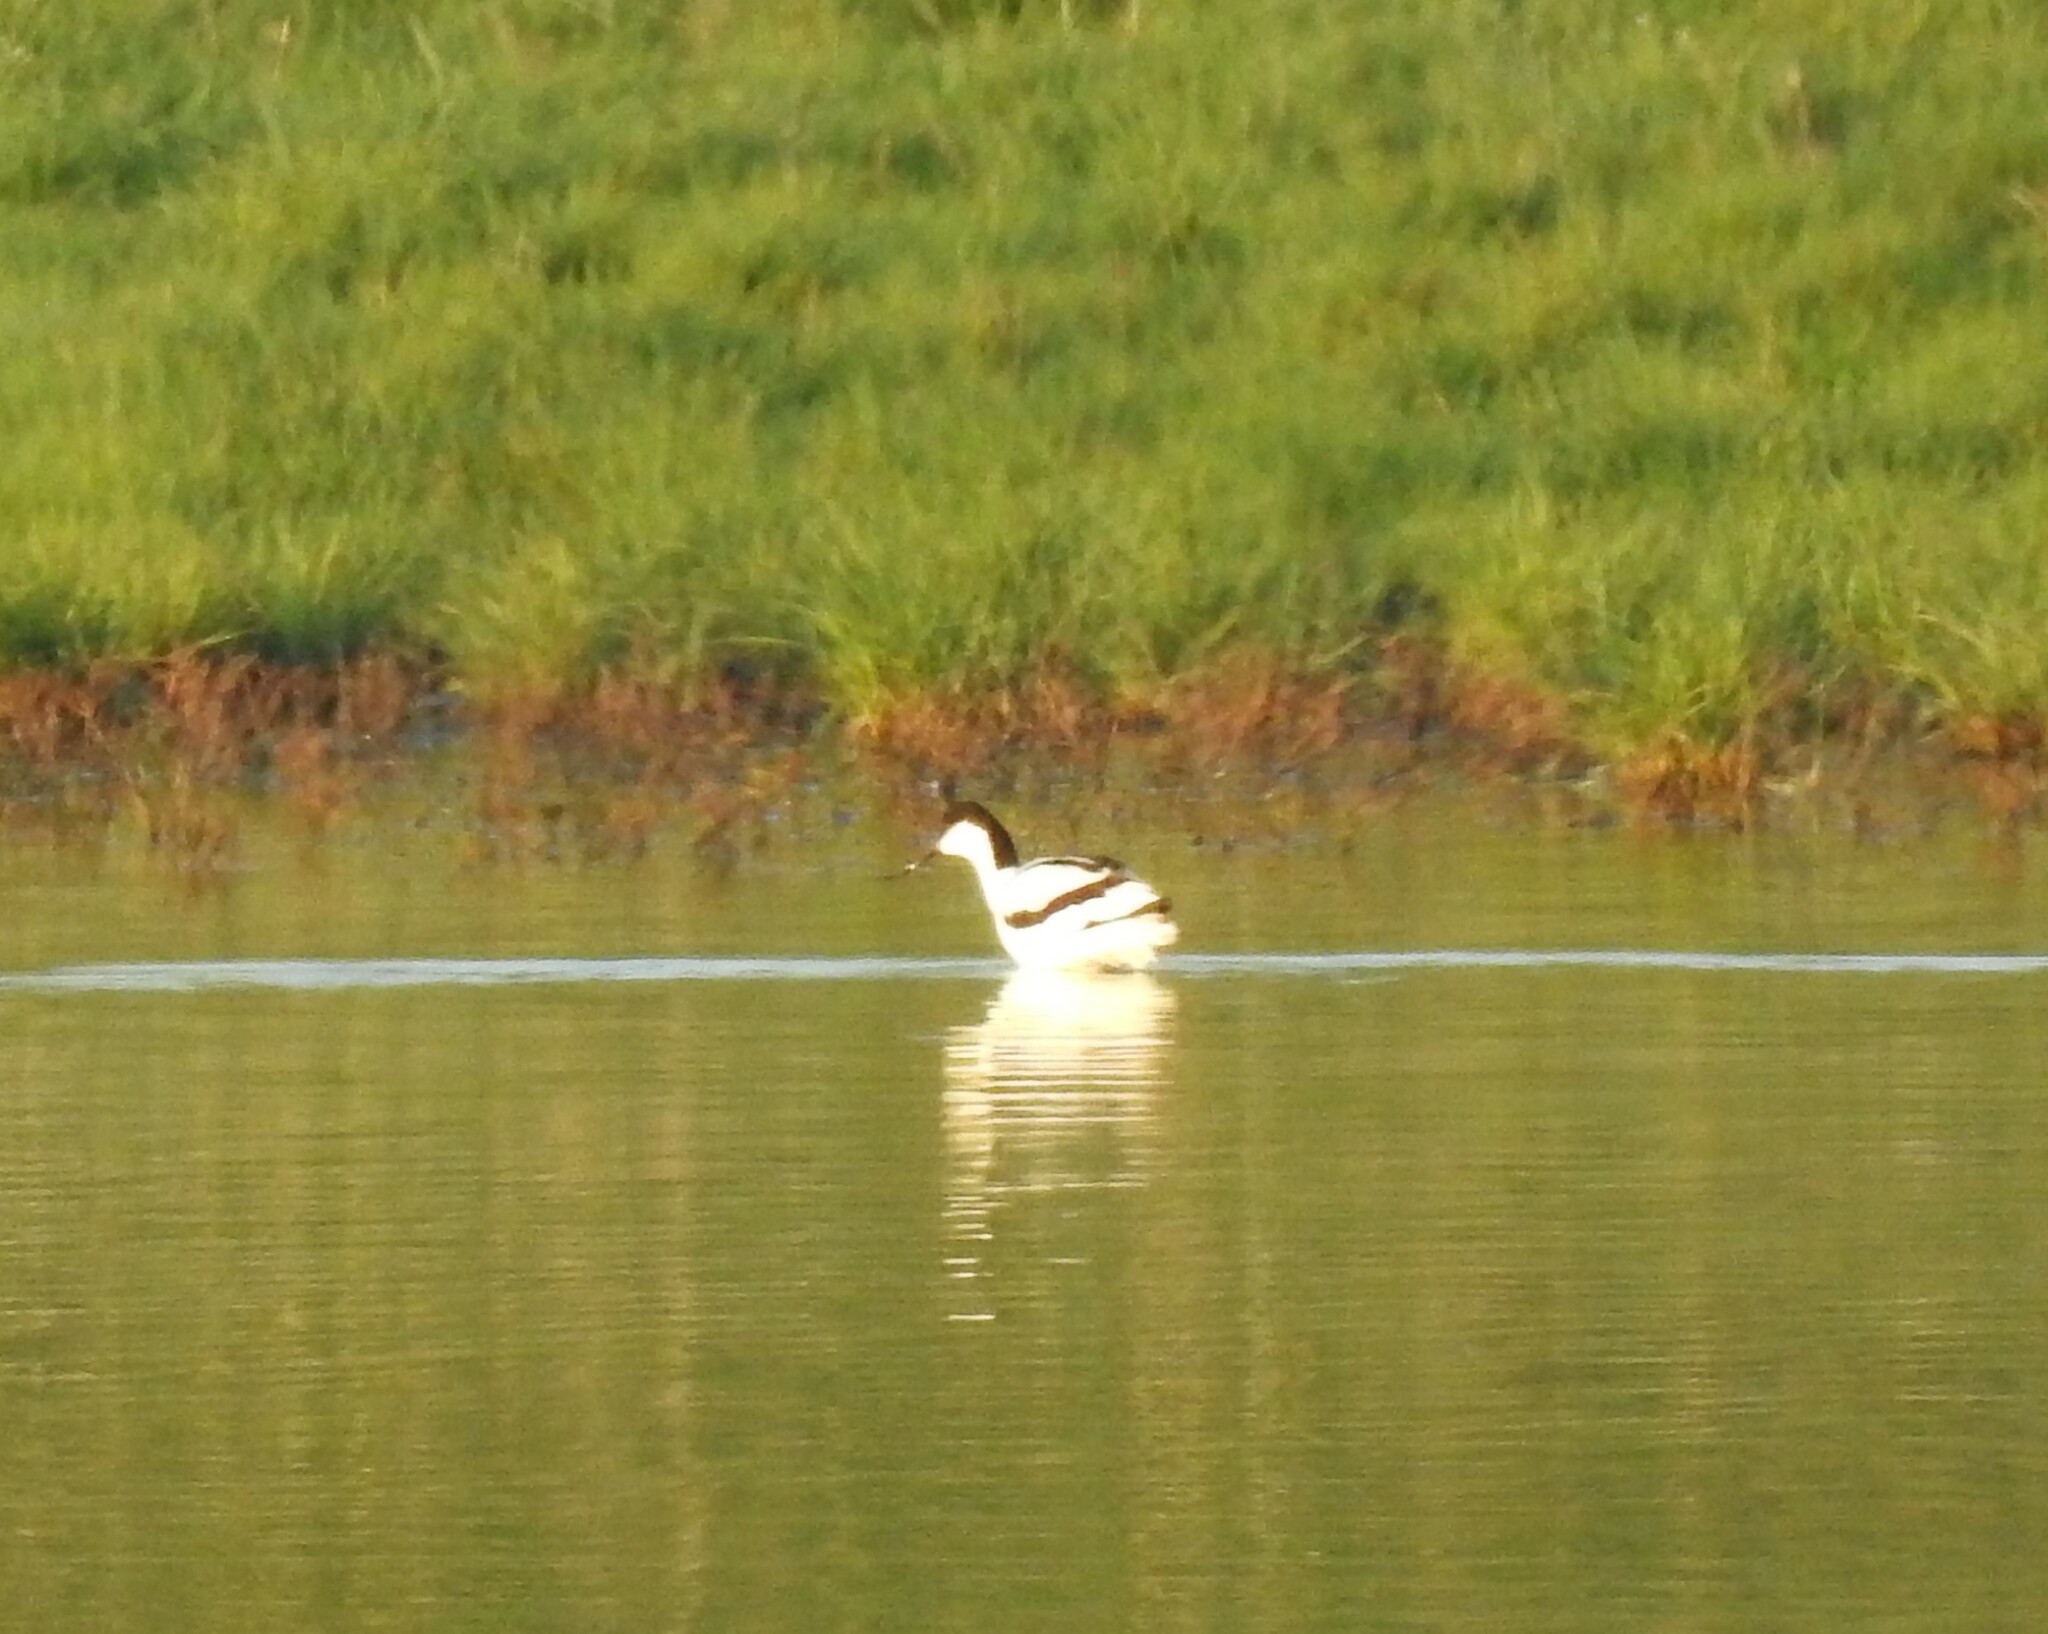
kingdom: Animalia
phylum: Chordata
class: Aves
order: Charadriiformes
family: Recurvirostridae
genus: Recurvirostra
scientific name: Recurvirostra avosetta
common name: Pied avocet
